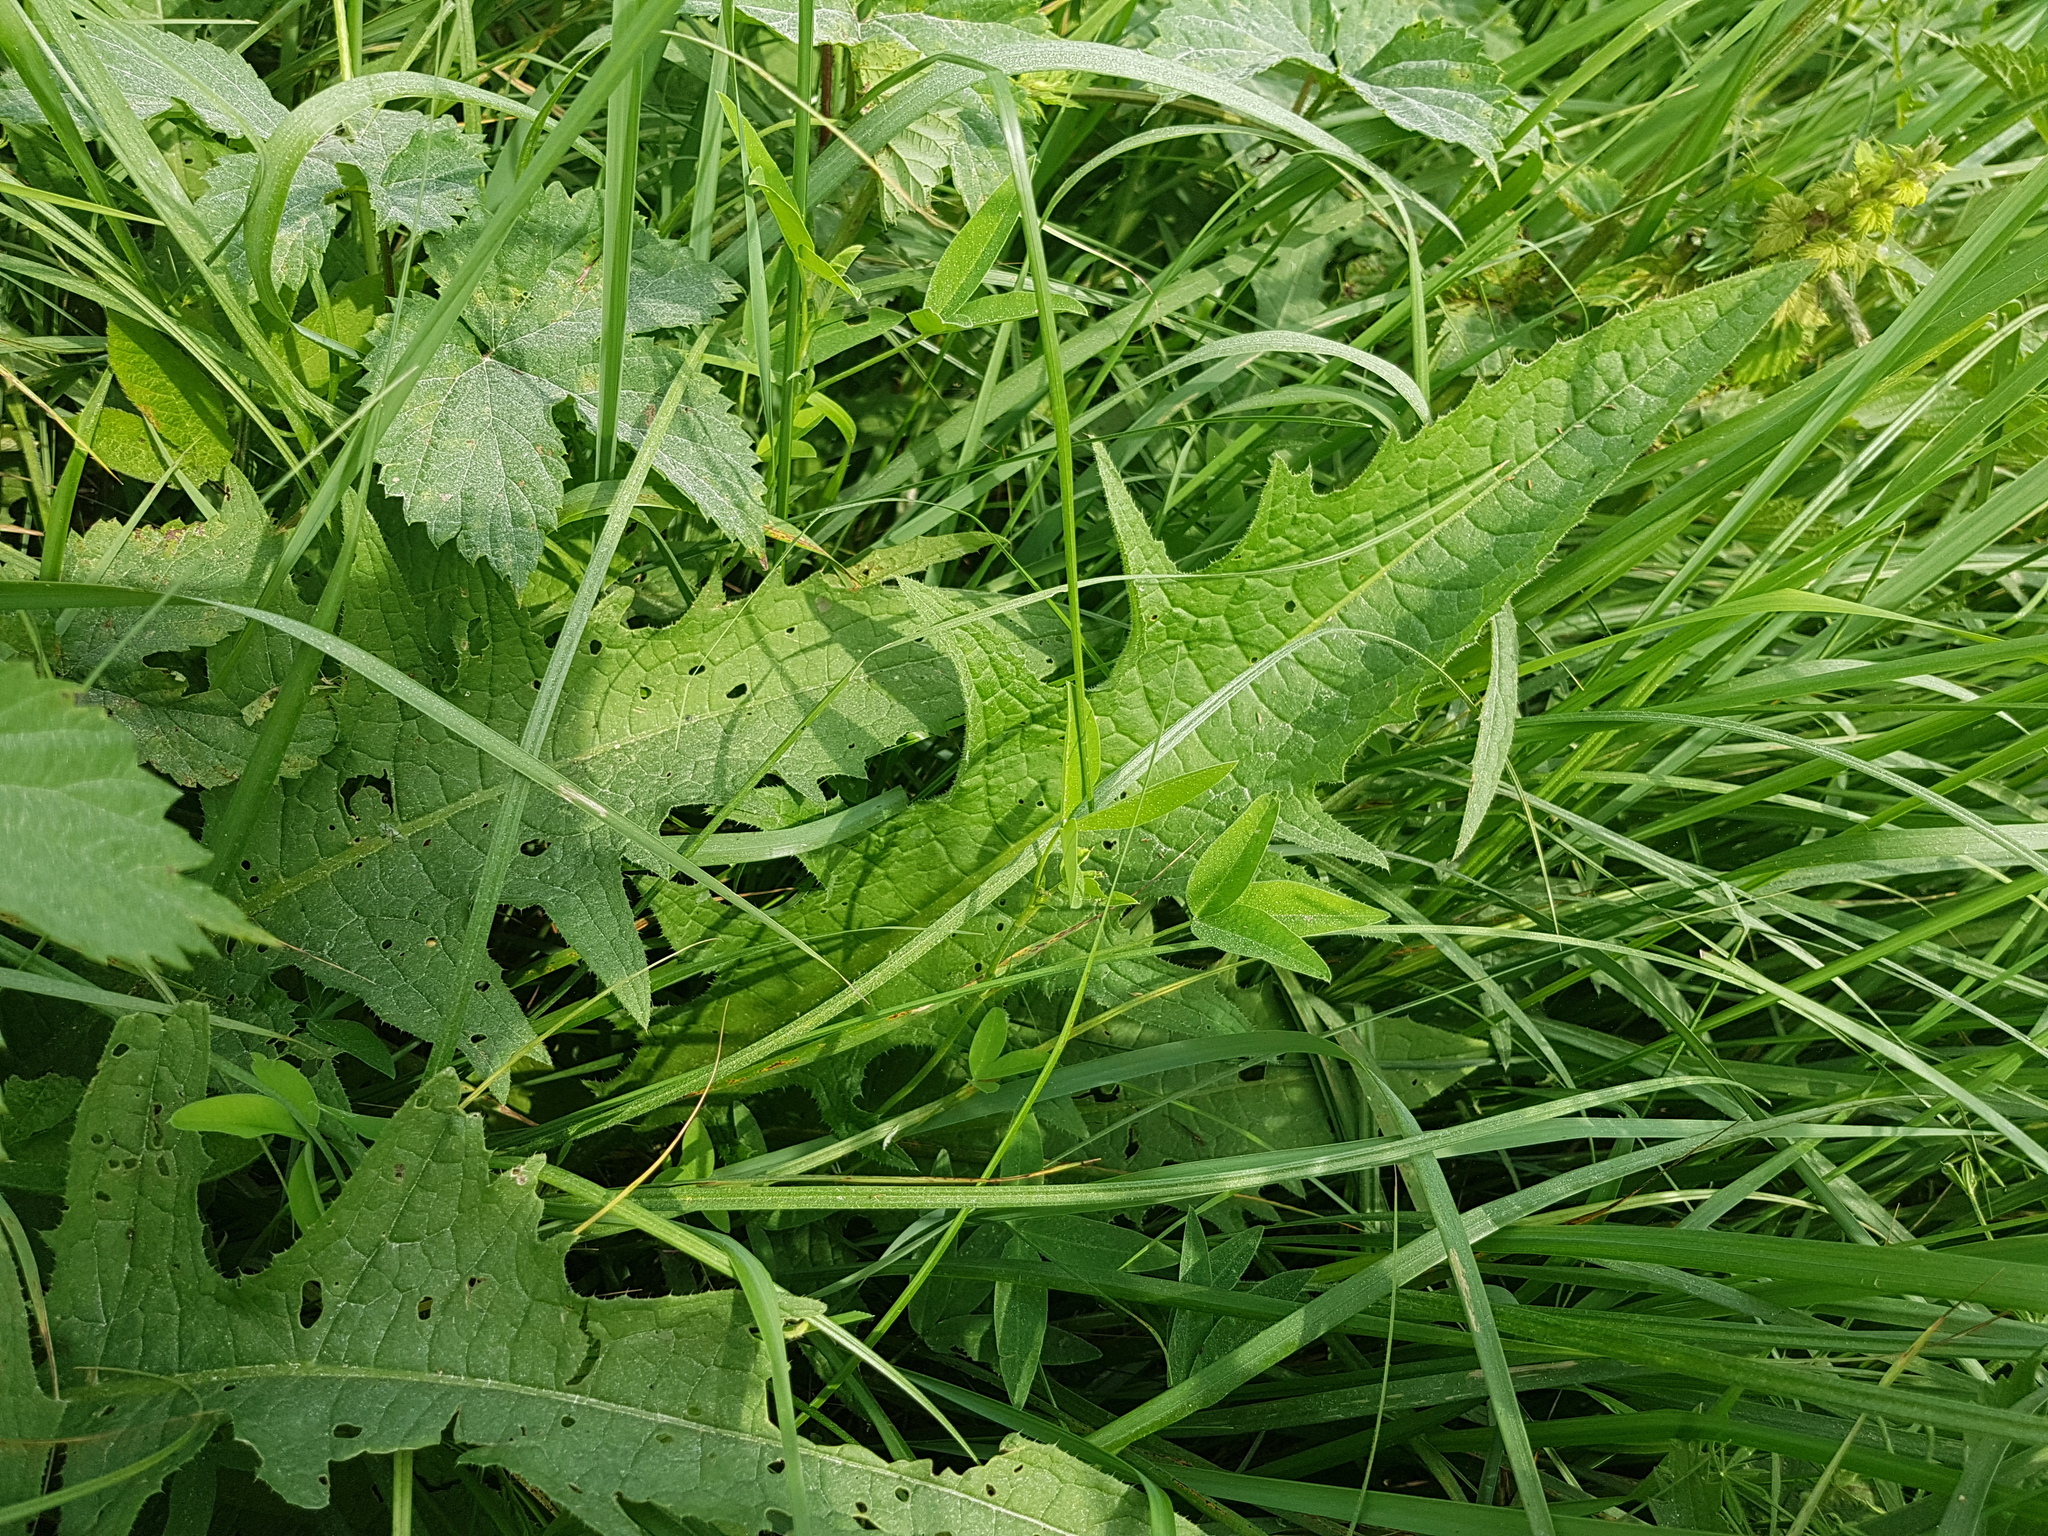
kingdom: Plantae
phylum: Tracheophyta
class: Magnoliopsida
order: Asterales
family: Asteraceae
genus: Cirsium
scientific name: Cirsium rivulare
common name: Brook thistle
